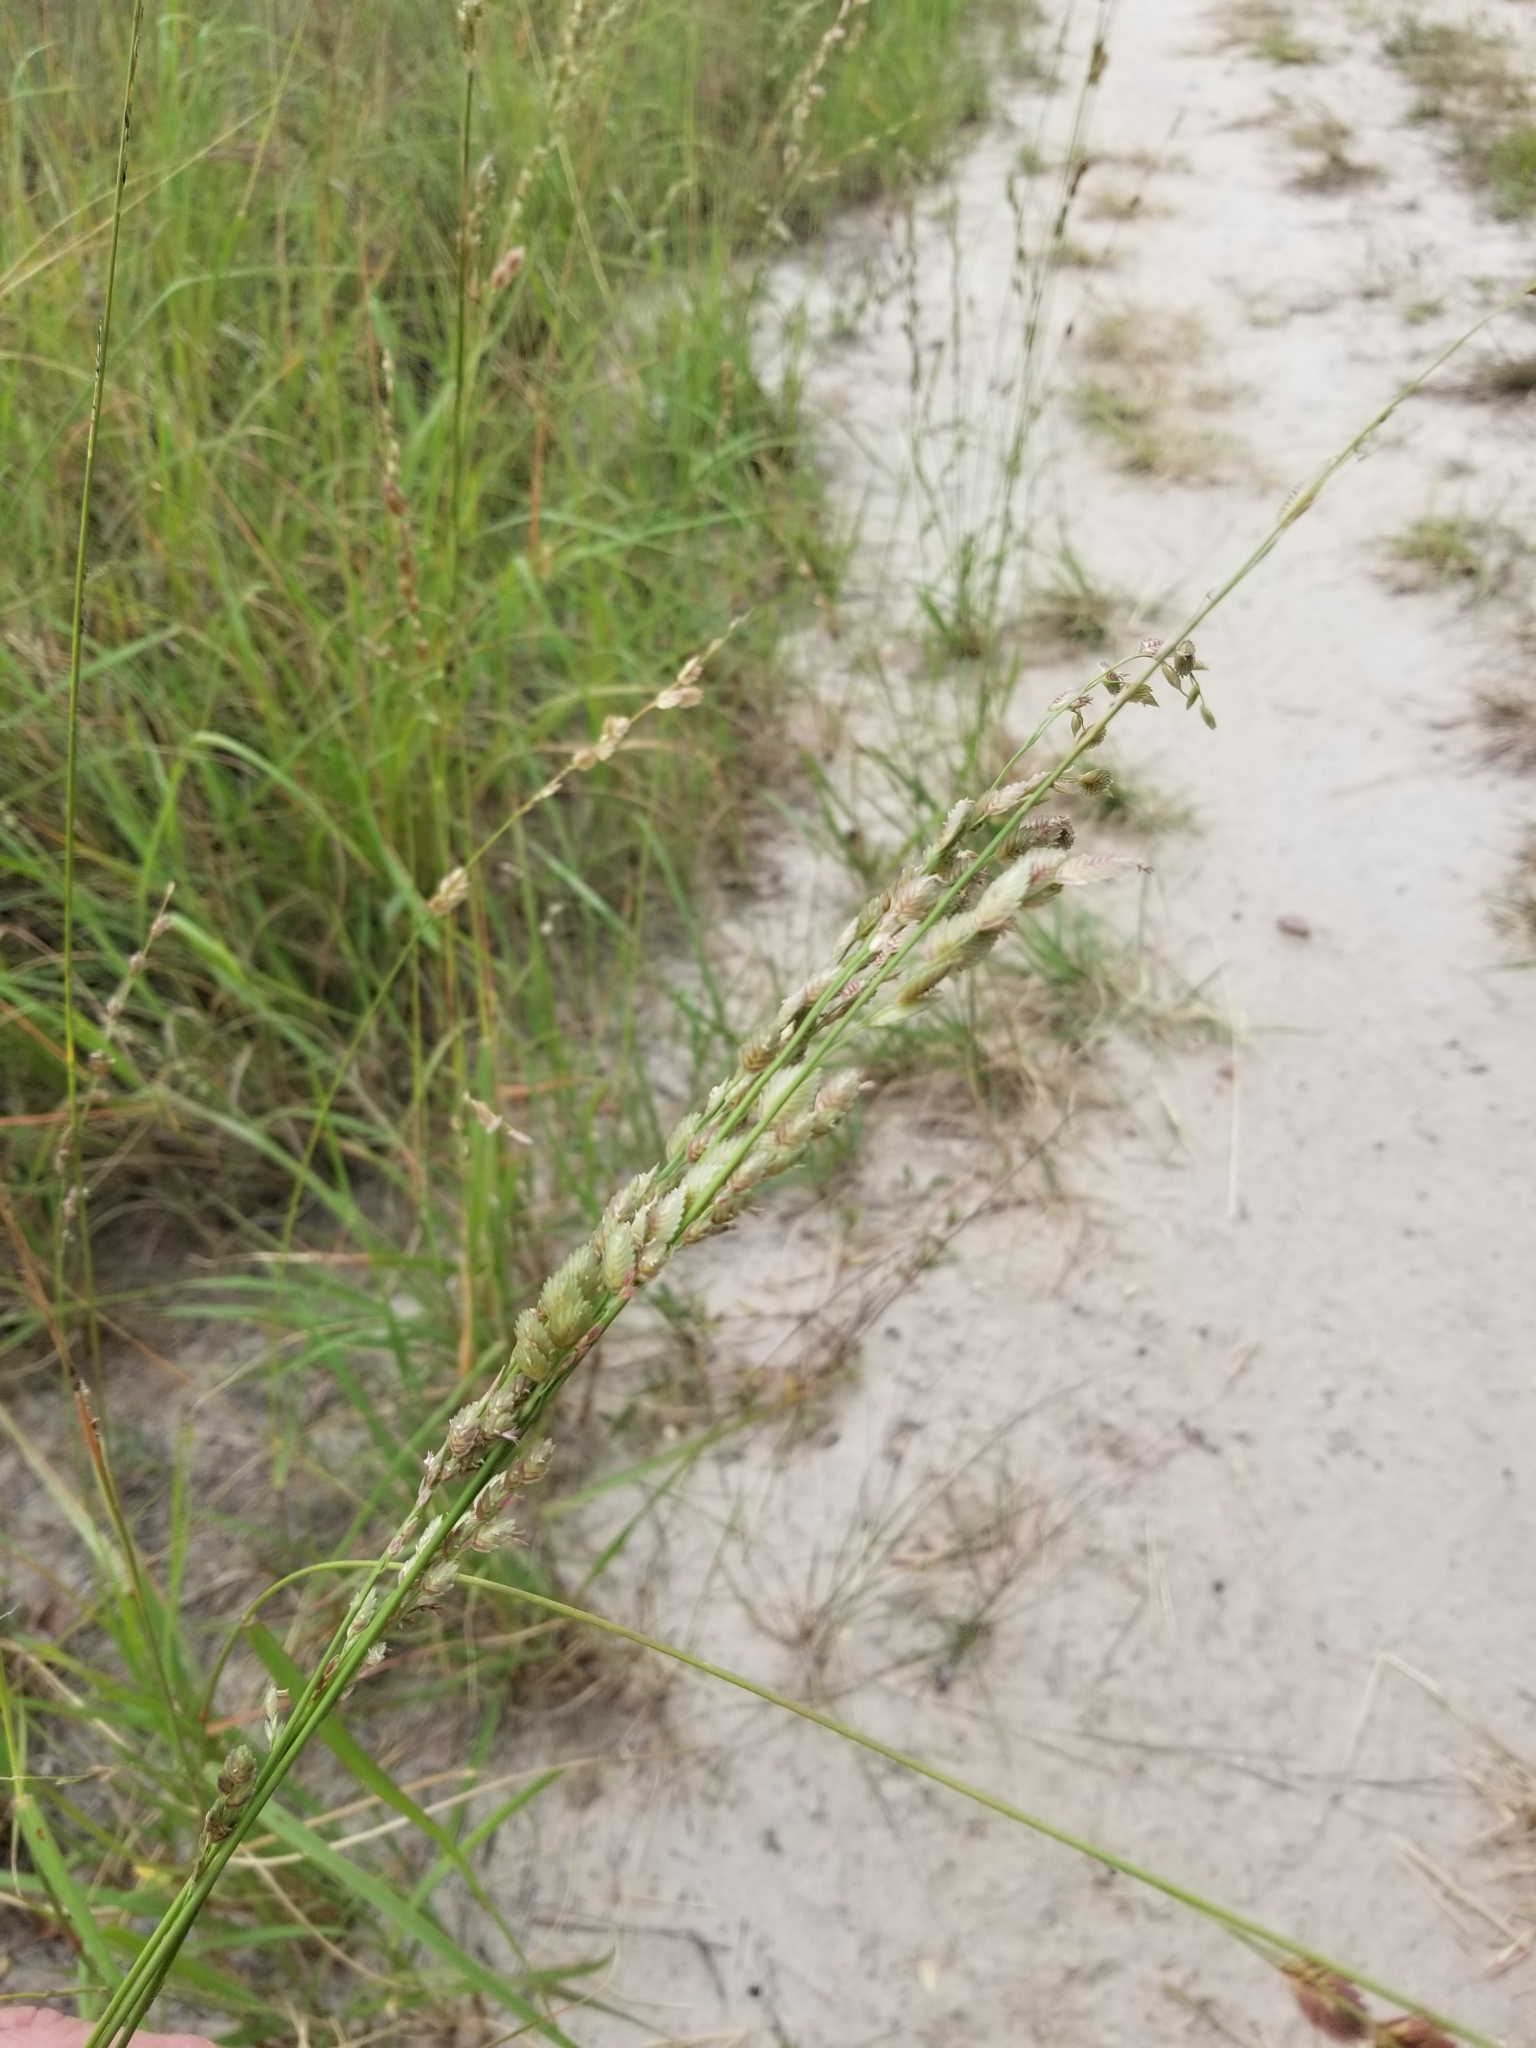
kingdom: Plantae
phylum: Tracheophyta
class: Liliopsida
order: Poales
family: Poaceae
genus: Eragrostis
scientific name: Eragrostis superba
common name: Wilman lovegrass
